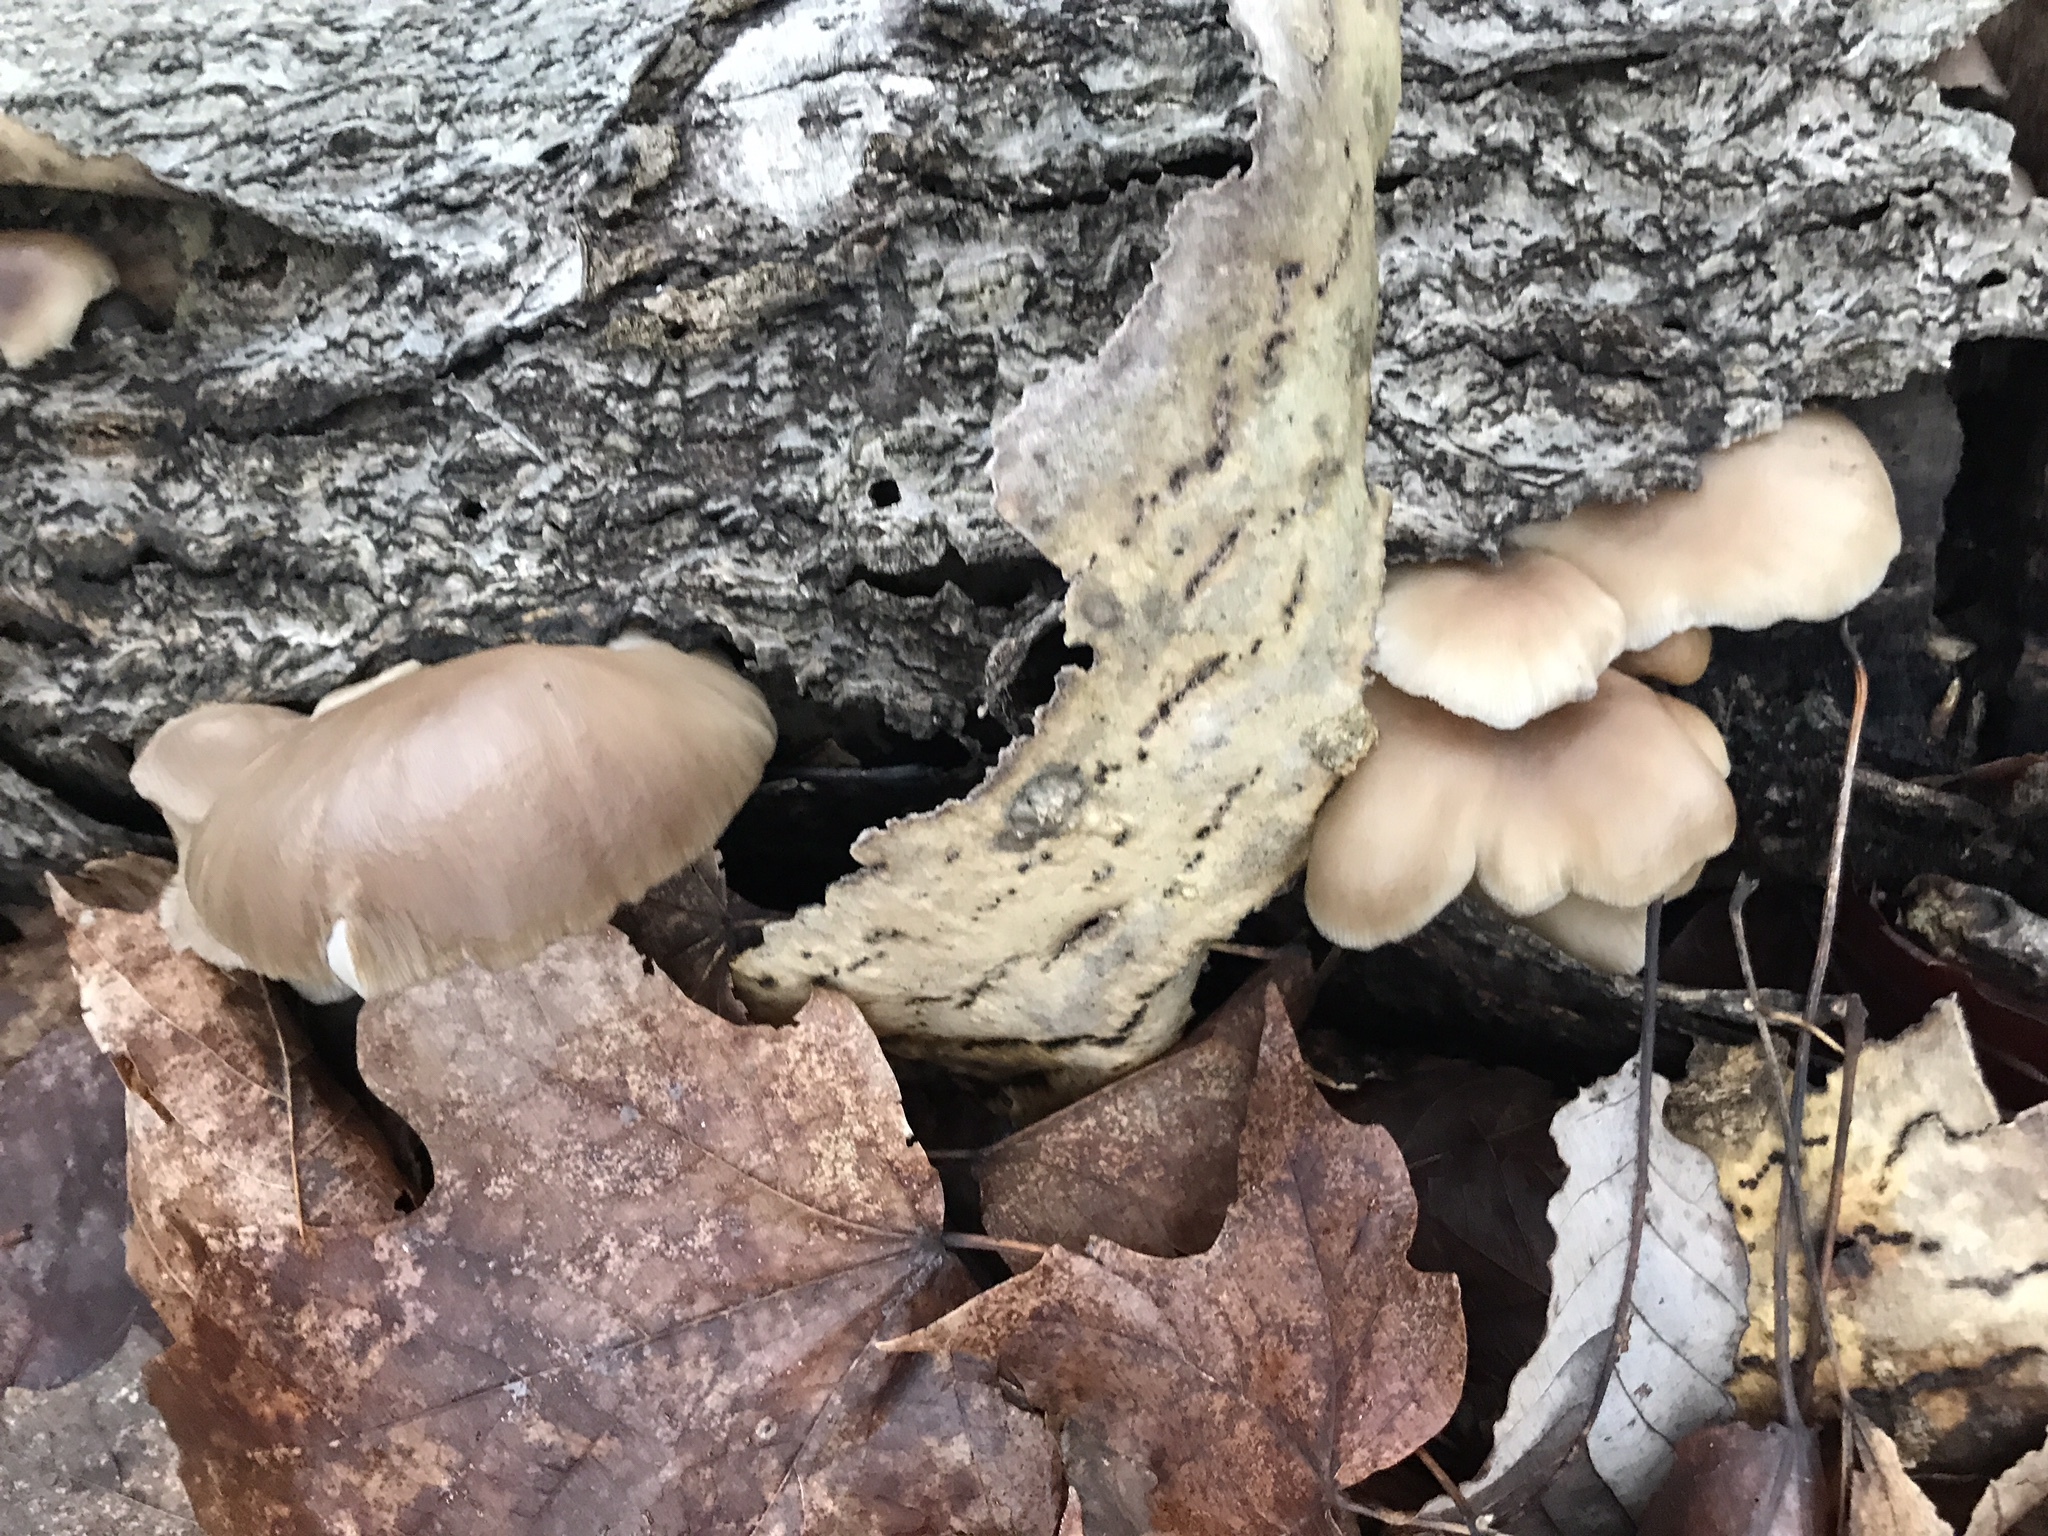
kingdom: Fungi
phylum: Basidiomycota
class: Agaricomycetes
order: Agaricales
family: Pleurotaceae
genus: Pleurotus
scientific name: Pleurotus populinus
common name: Aspen oyster mushroom
